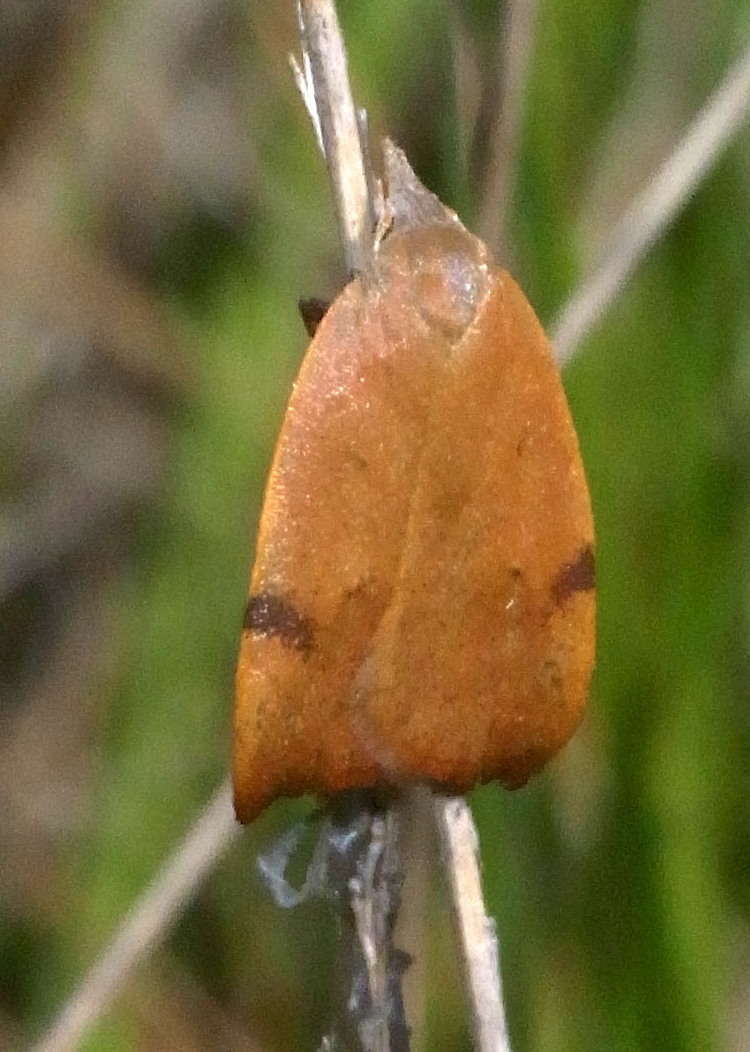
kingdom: Animalia
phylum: Arthropoda
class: Insecta
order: Lepidoptera
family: Oecophoridae
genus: Tortricopsis
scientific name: Tortricopsis uncinella
